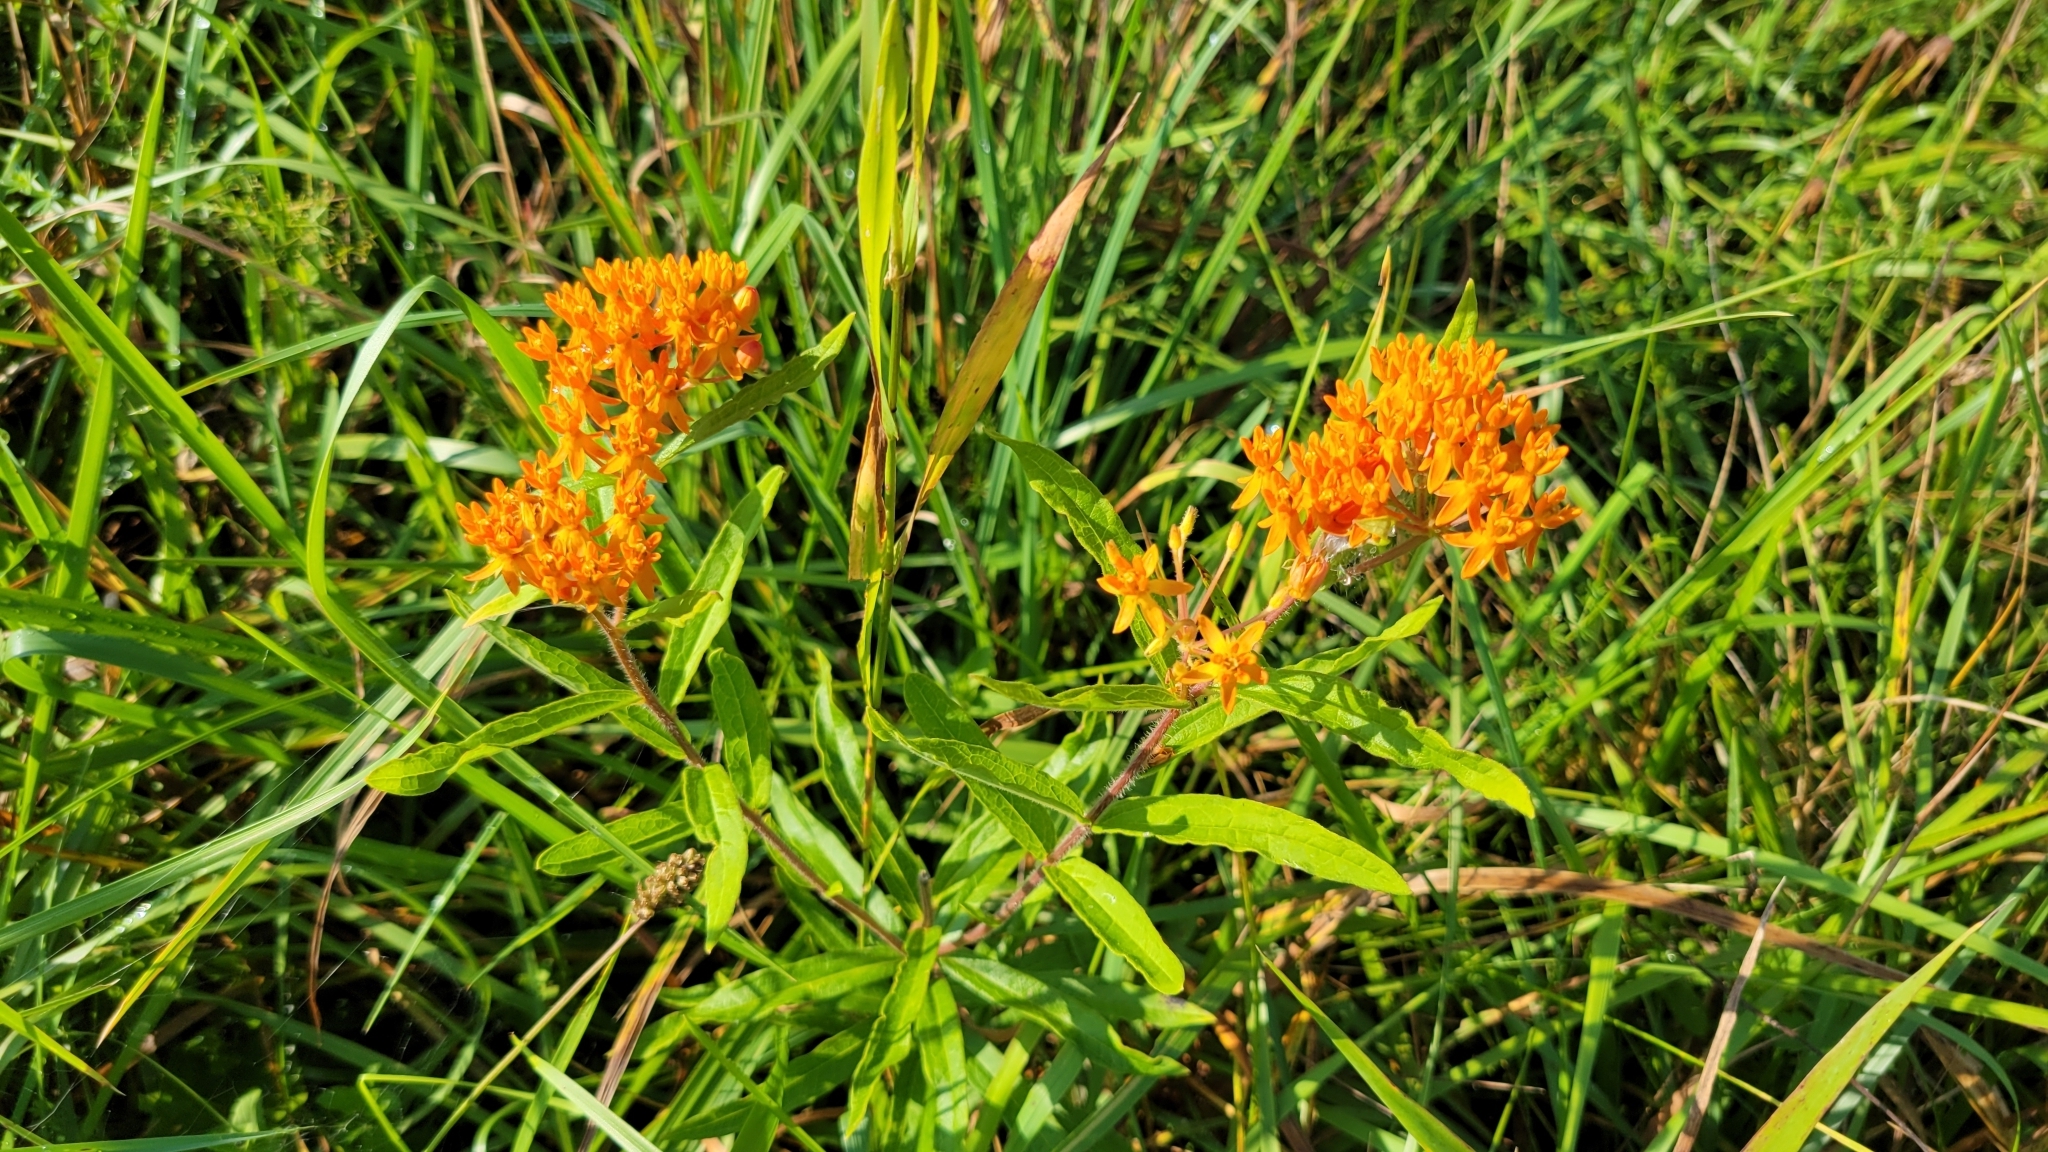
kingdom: Plantae
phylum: Tracheophyta
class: Magnoliopsida
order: Gentianales
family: Apocynaceae
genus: Asclepias
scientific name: Asclepias tuberosa
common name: Butterfly milkweed
